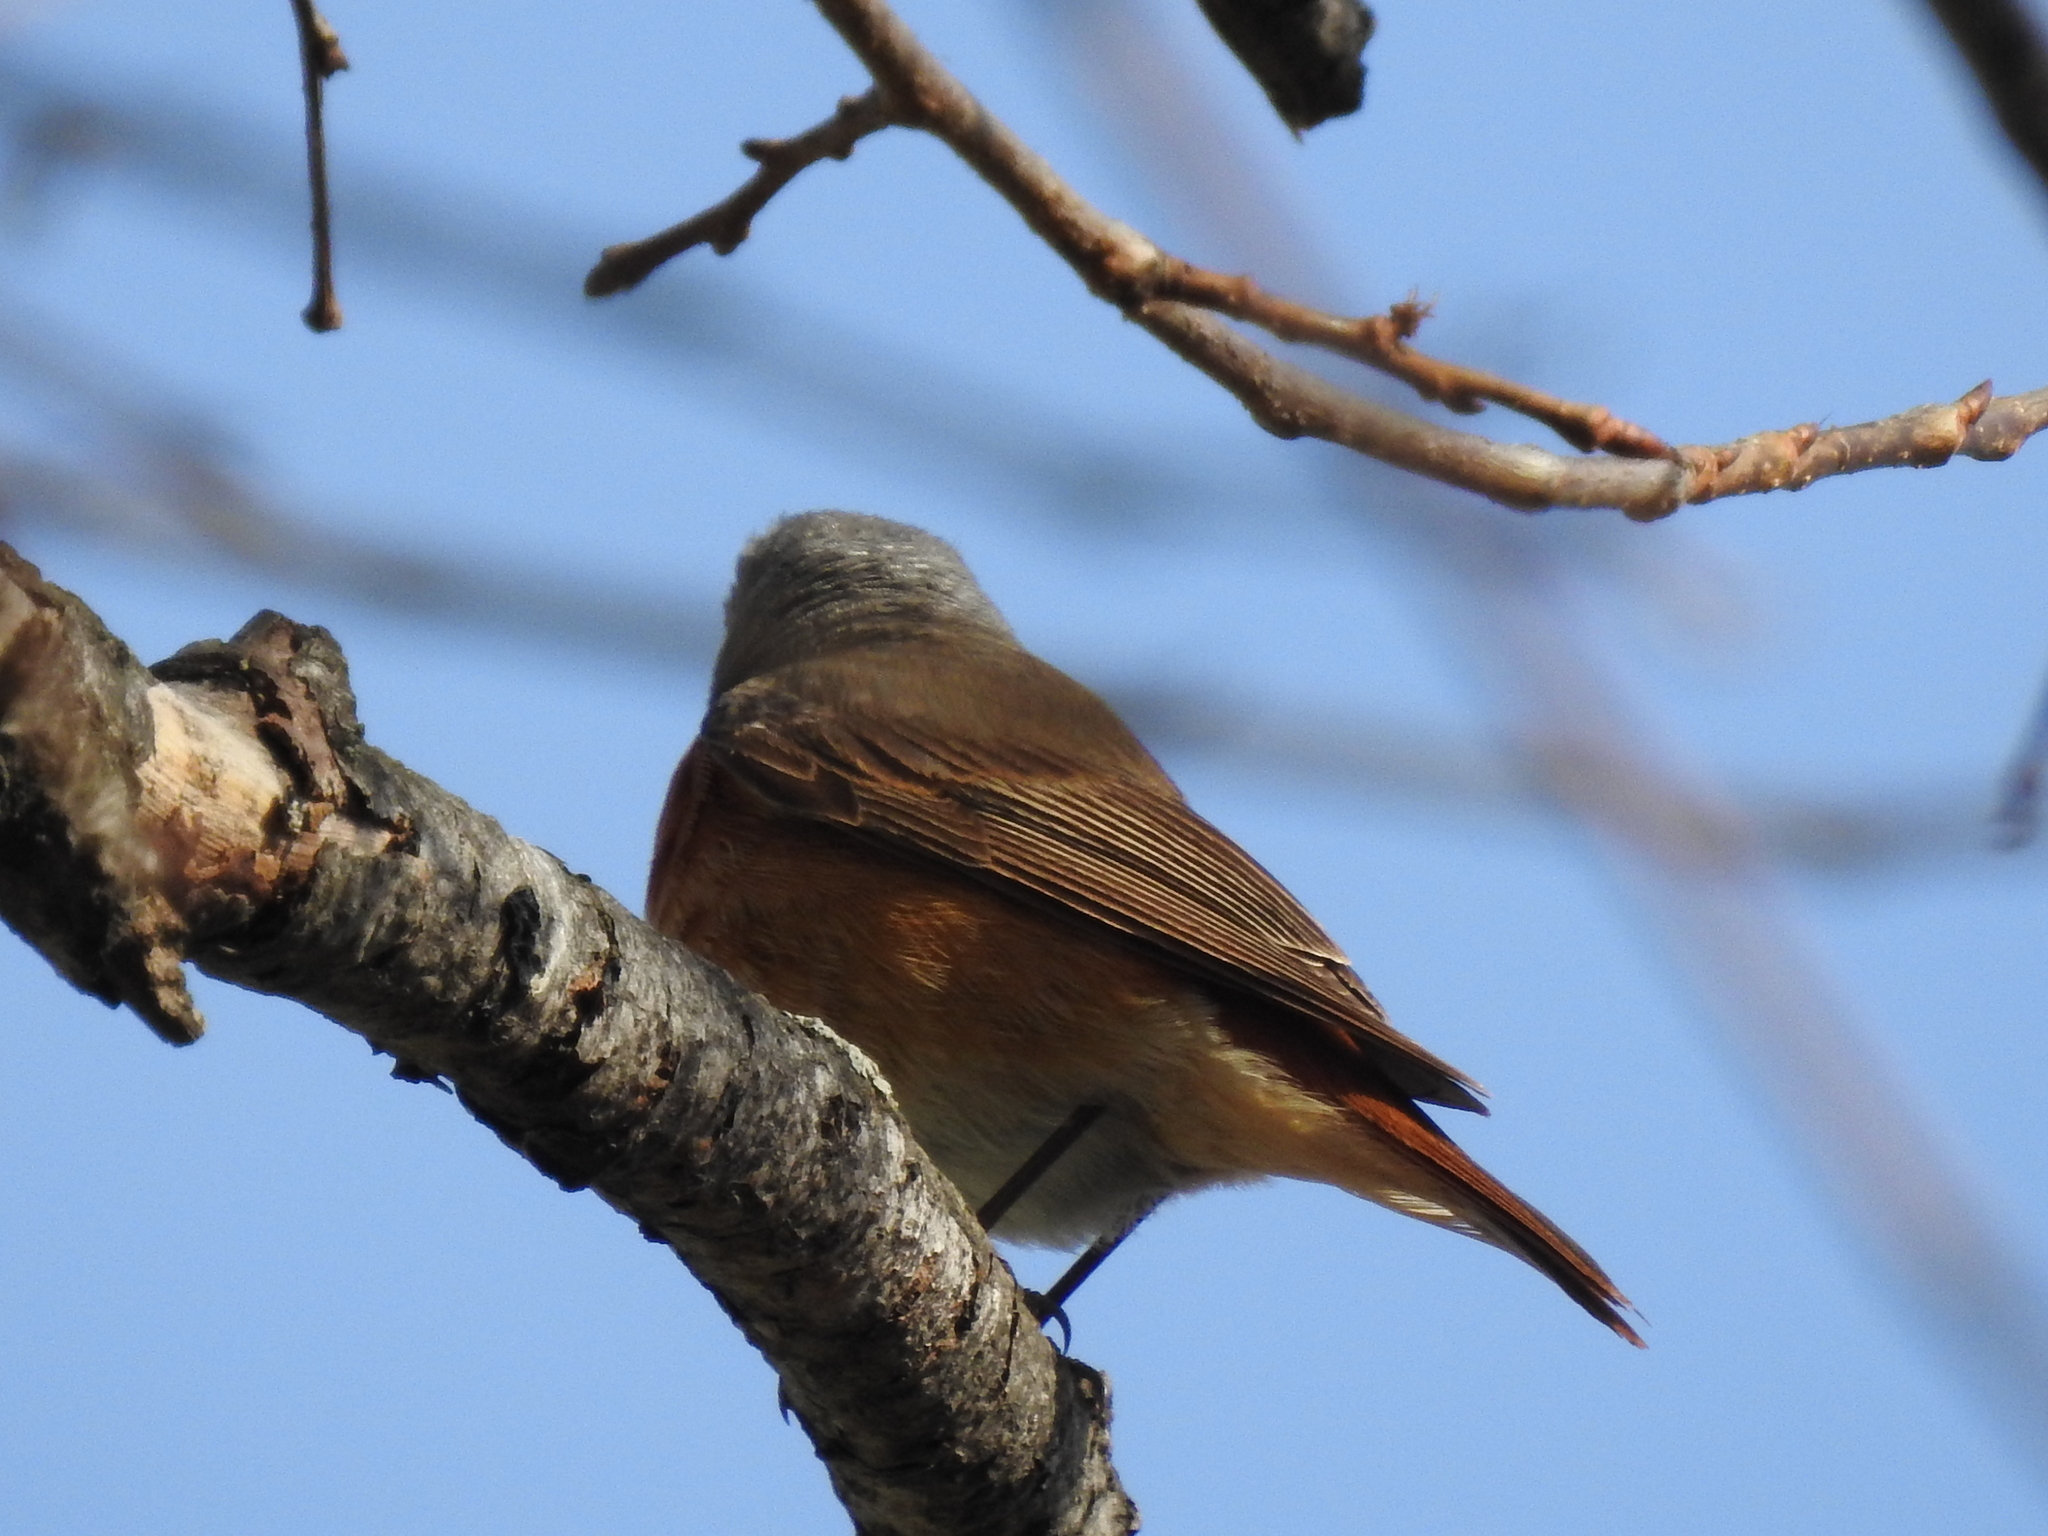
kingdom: Animalia
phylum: Chordata
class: Aves
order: Passeriformes
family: Muscicapidae
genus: Phoenicurus
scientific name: Phoenicurus phoenicurus
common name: Common redstart
